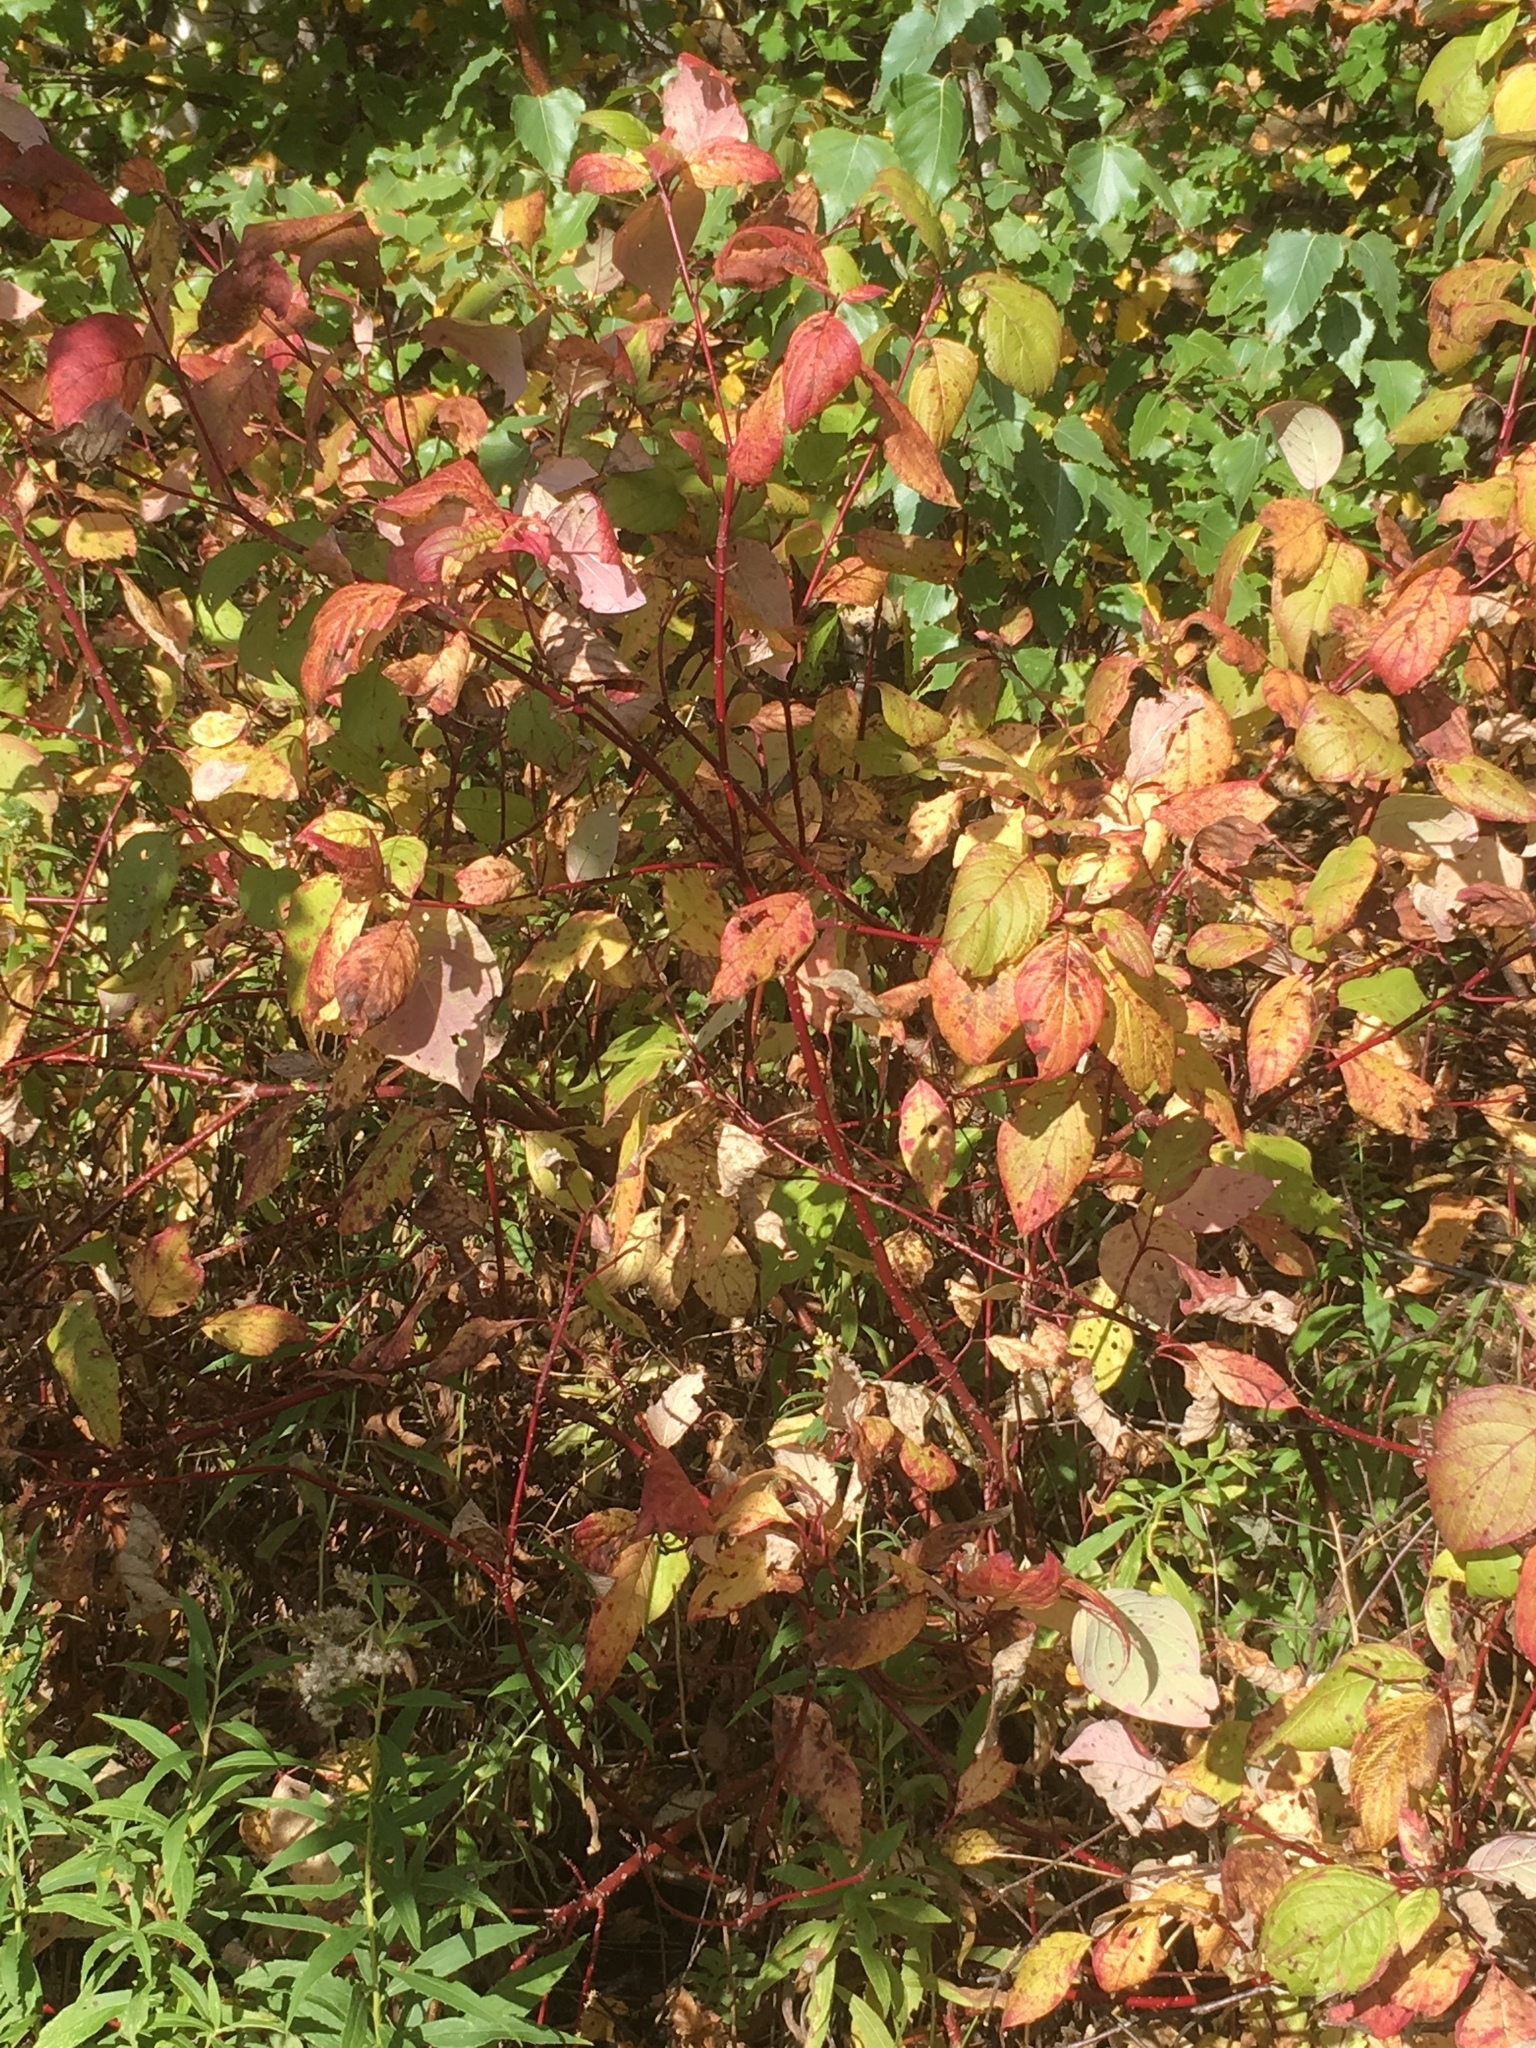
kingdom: Plantae
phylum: Tracheophyta
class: Magnoliopsida
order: Cornales
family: Cornaceae
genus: Cornus
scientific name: Cornus sericea
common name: Red-osier dogwood
